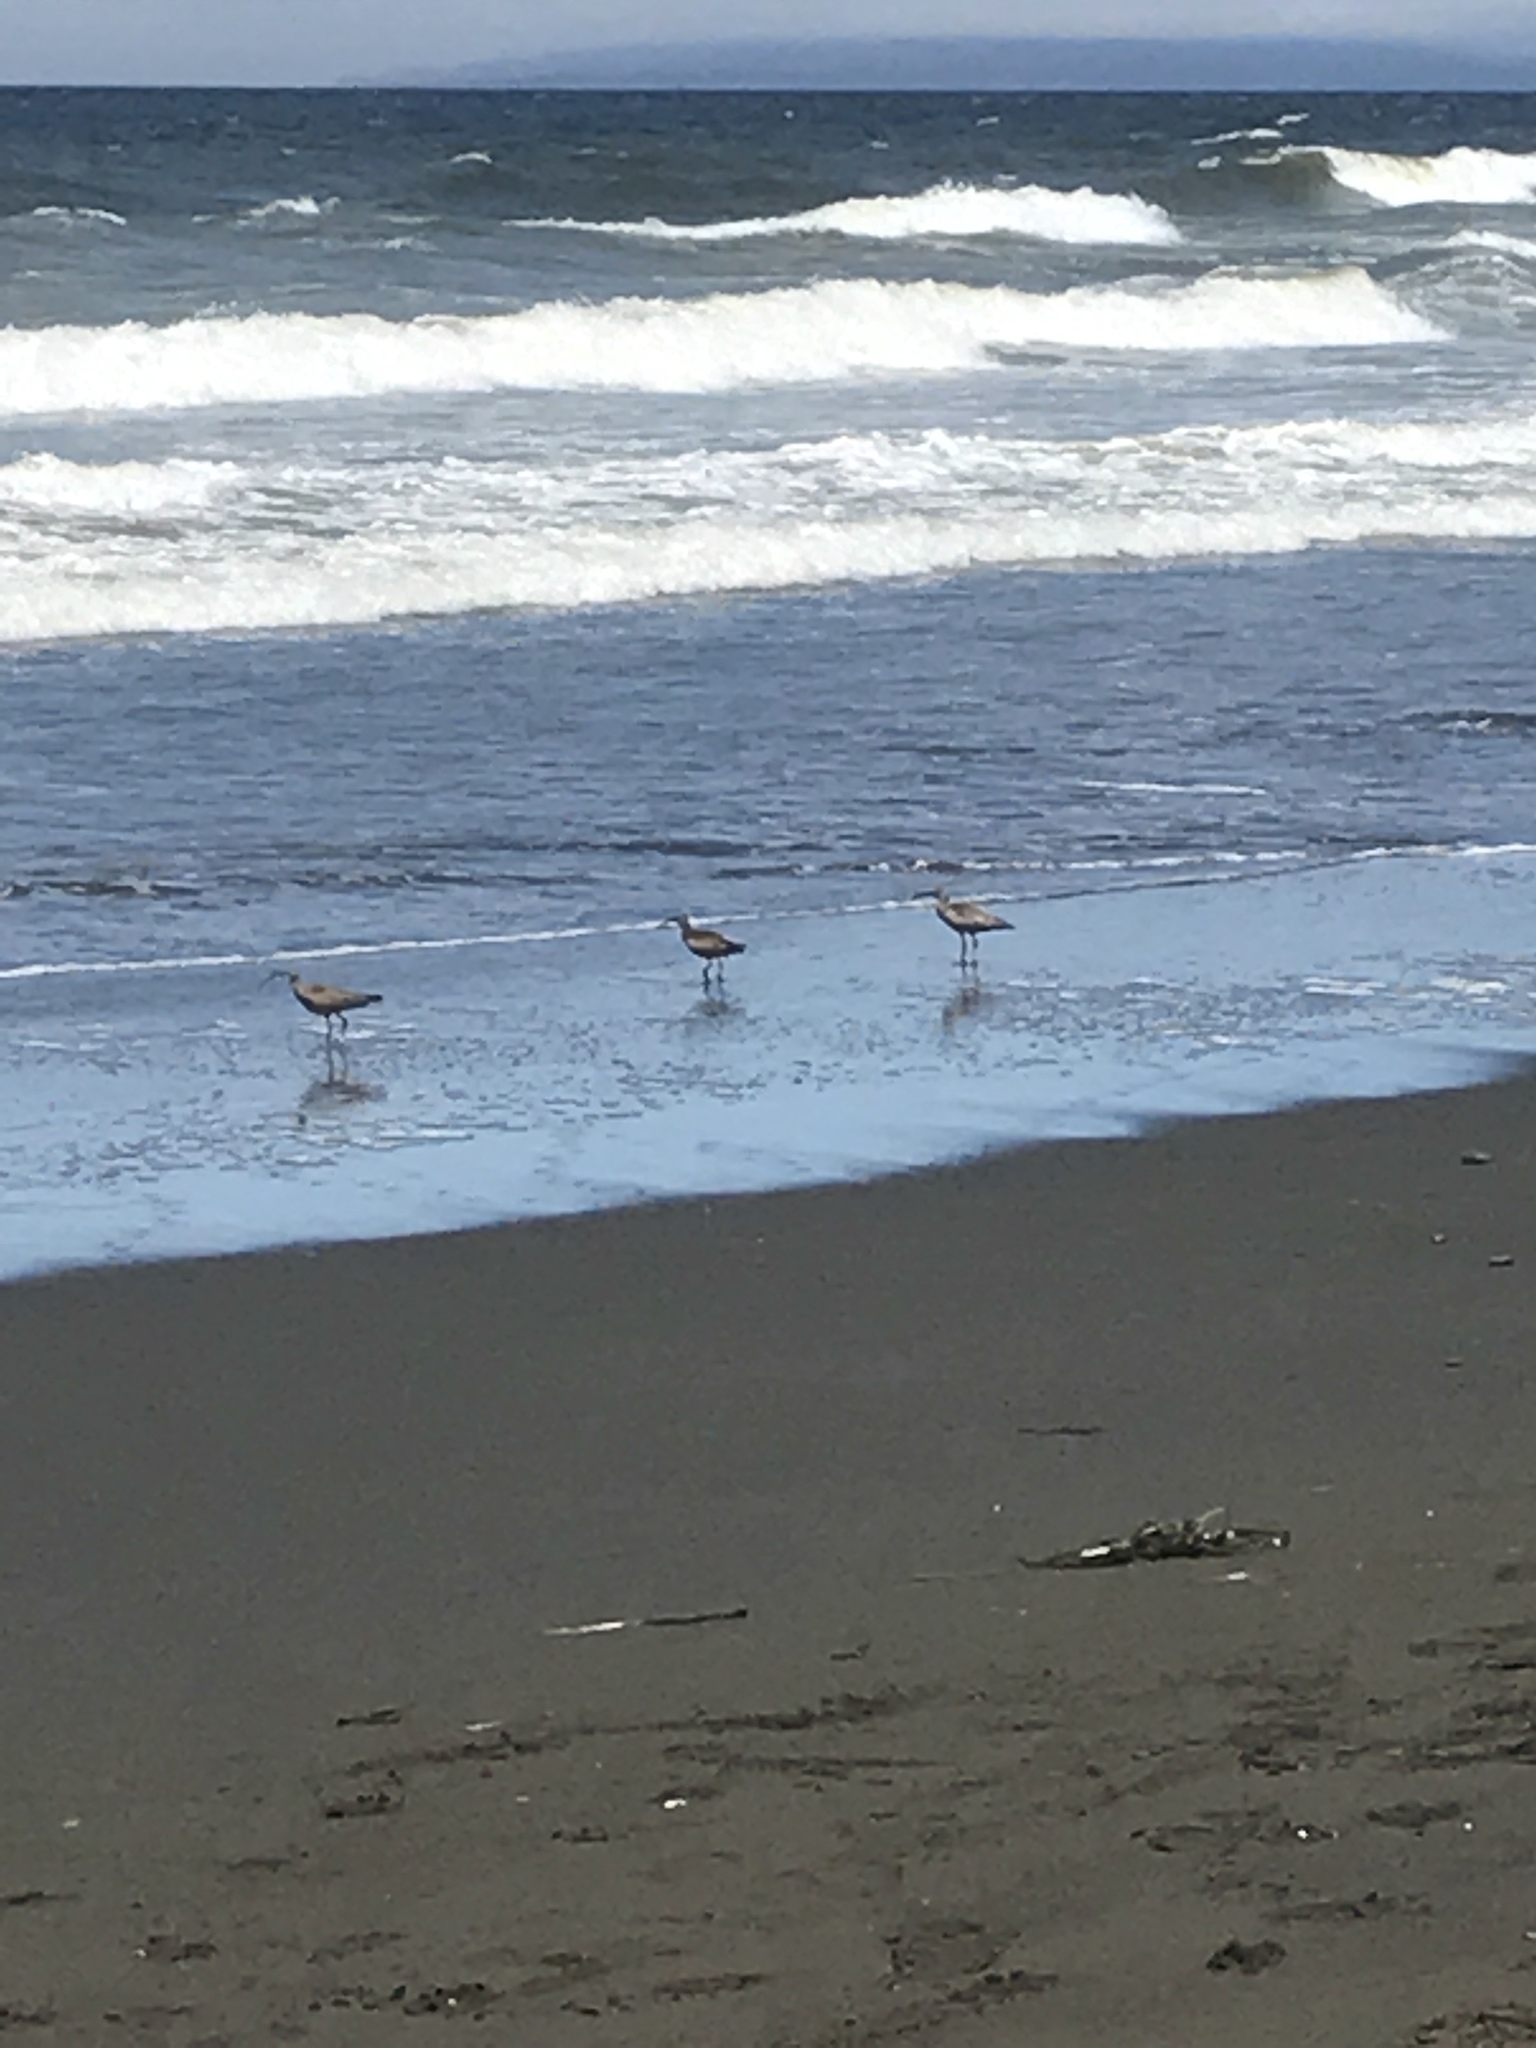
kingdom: Animalia
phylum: Chordata
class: Aves
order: Charadriiformes
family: Scolopacidae
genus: Numenius
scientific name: Numenius phaeopus
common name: Whimbrel
